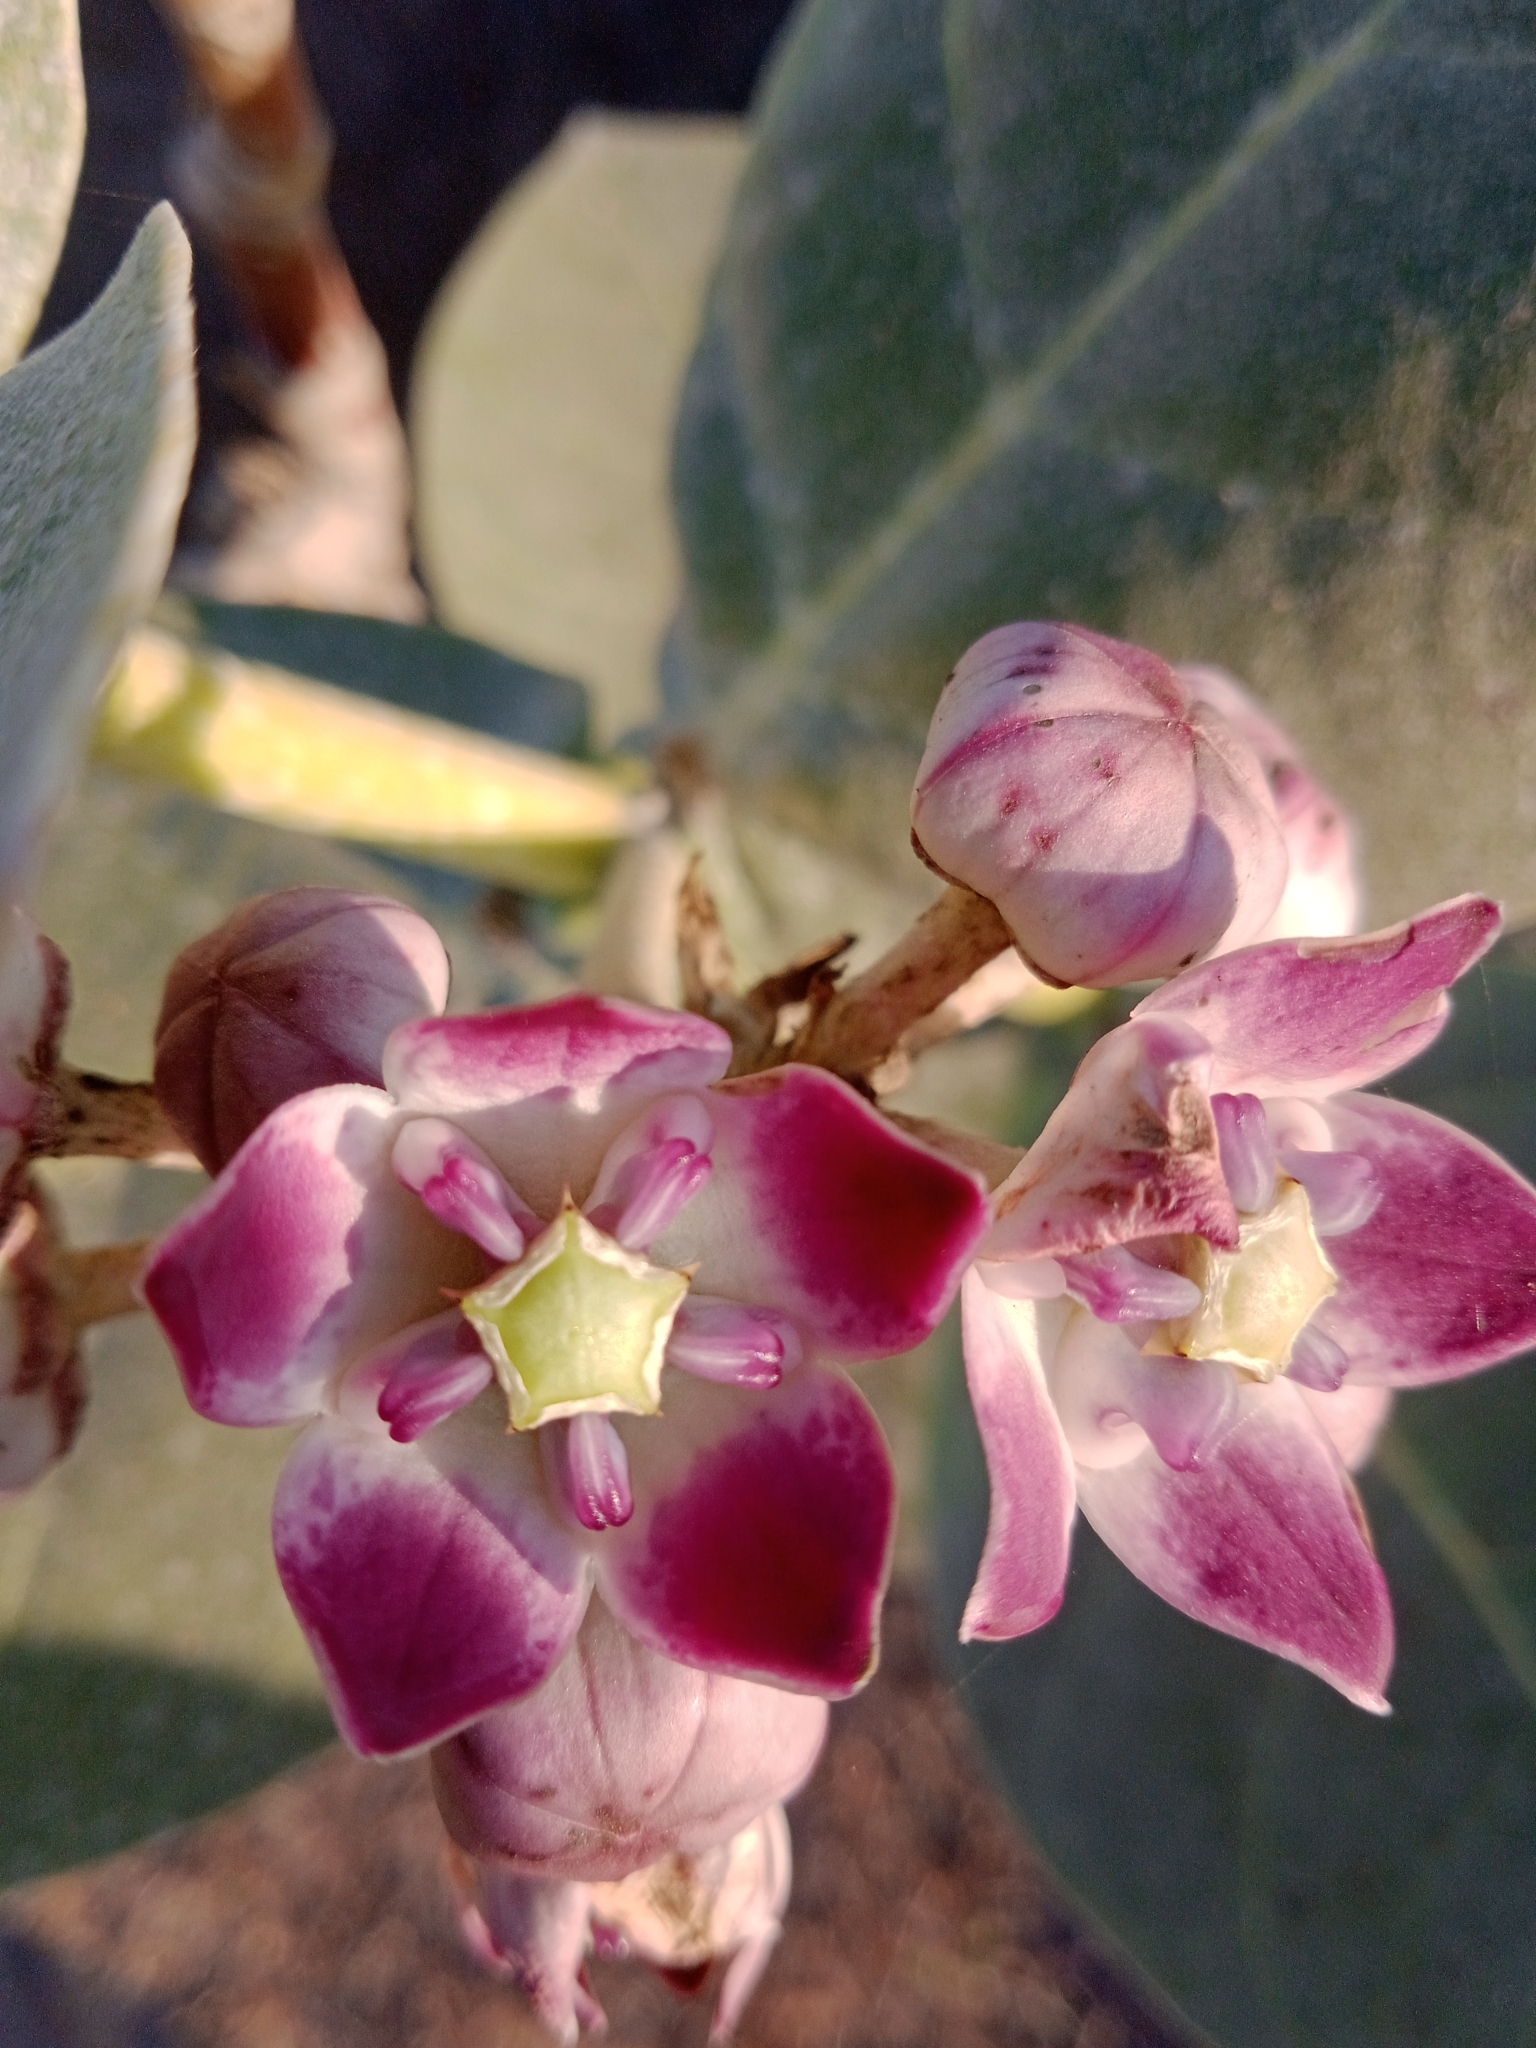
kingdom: Plantae
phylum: Tracheophyta
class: Magnoliopsida
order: Gentianales
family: Apocynaceae
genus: Calotropis
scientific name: Calotropis procera
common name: Roostertree
